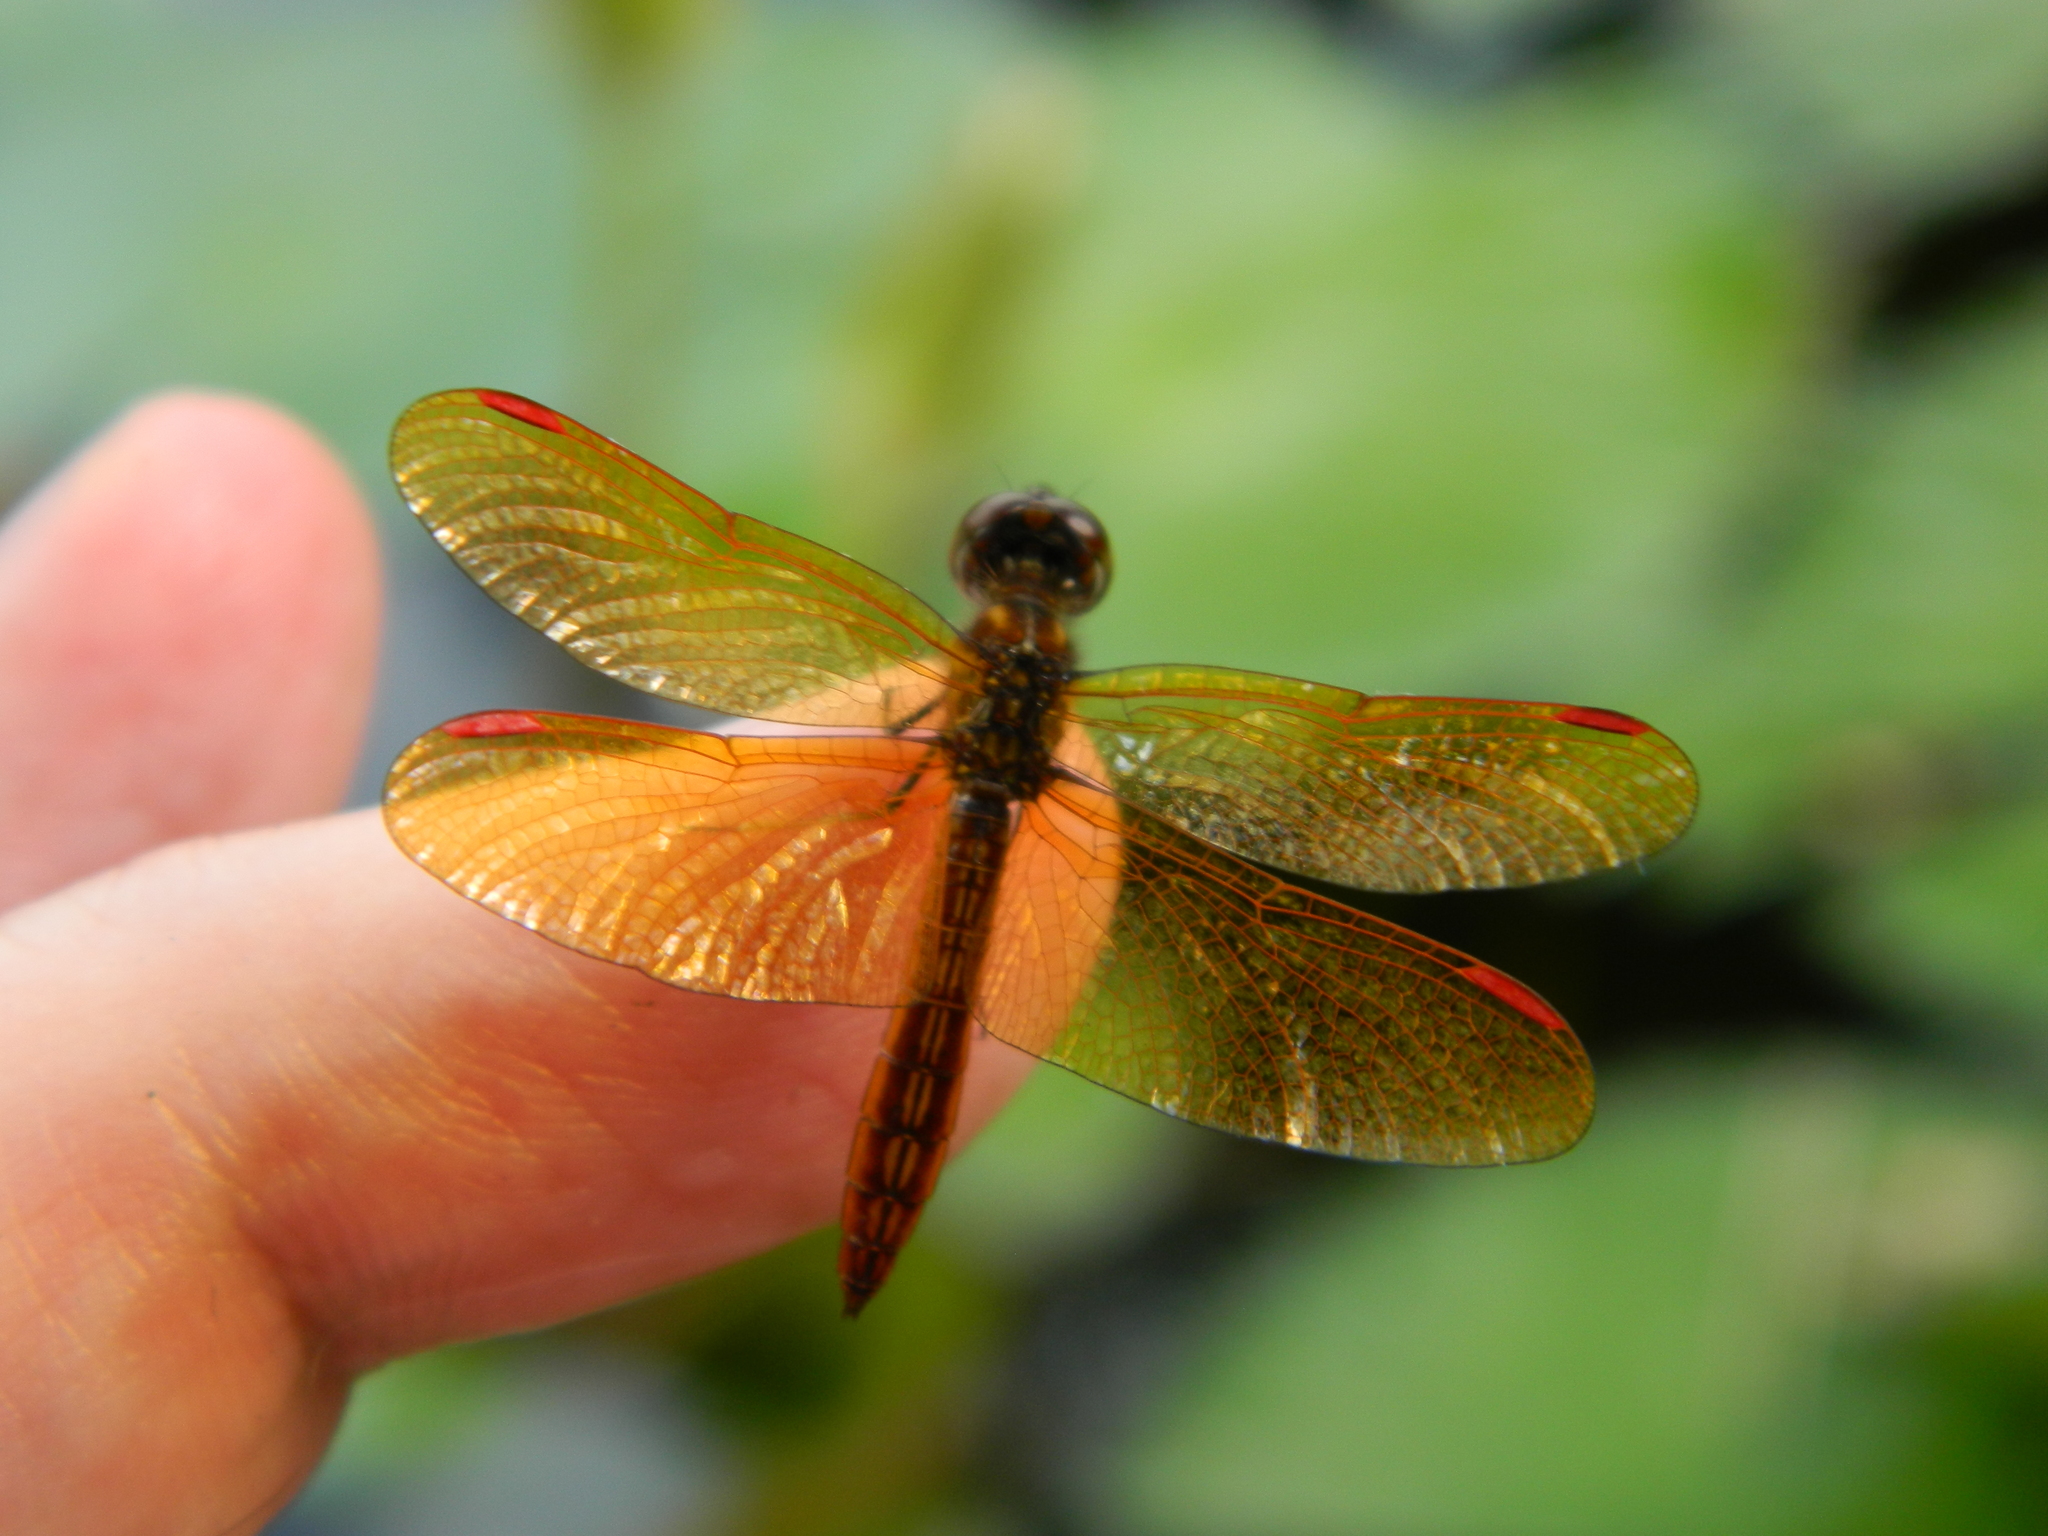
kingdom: Animalia
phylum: Arthropoda
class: Insecta
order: Odonata
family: Libellulidae
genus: Perithemis
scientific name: Perithemis domitia
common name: Slough amberwing
